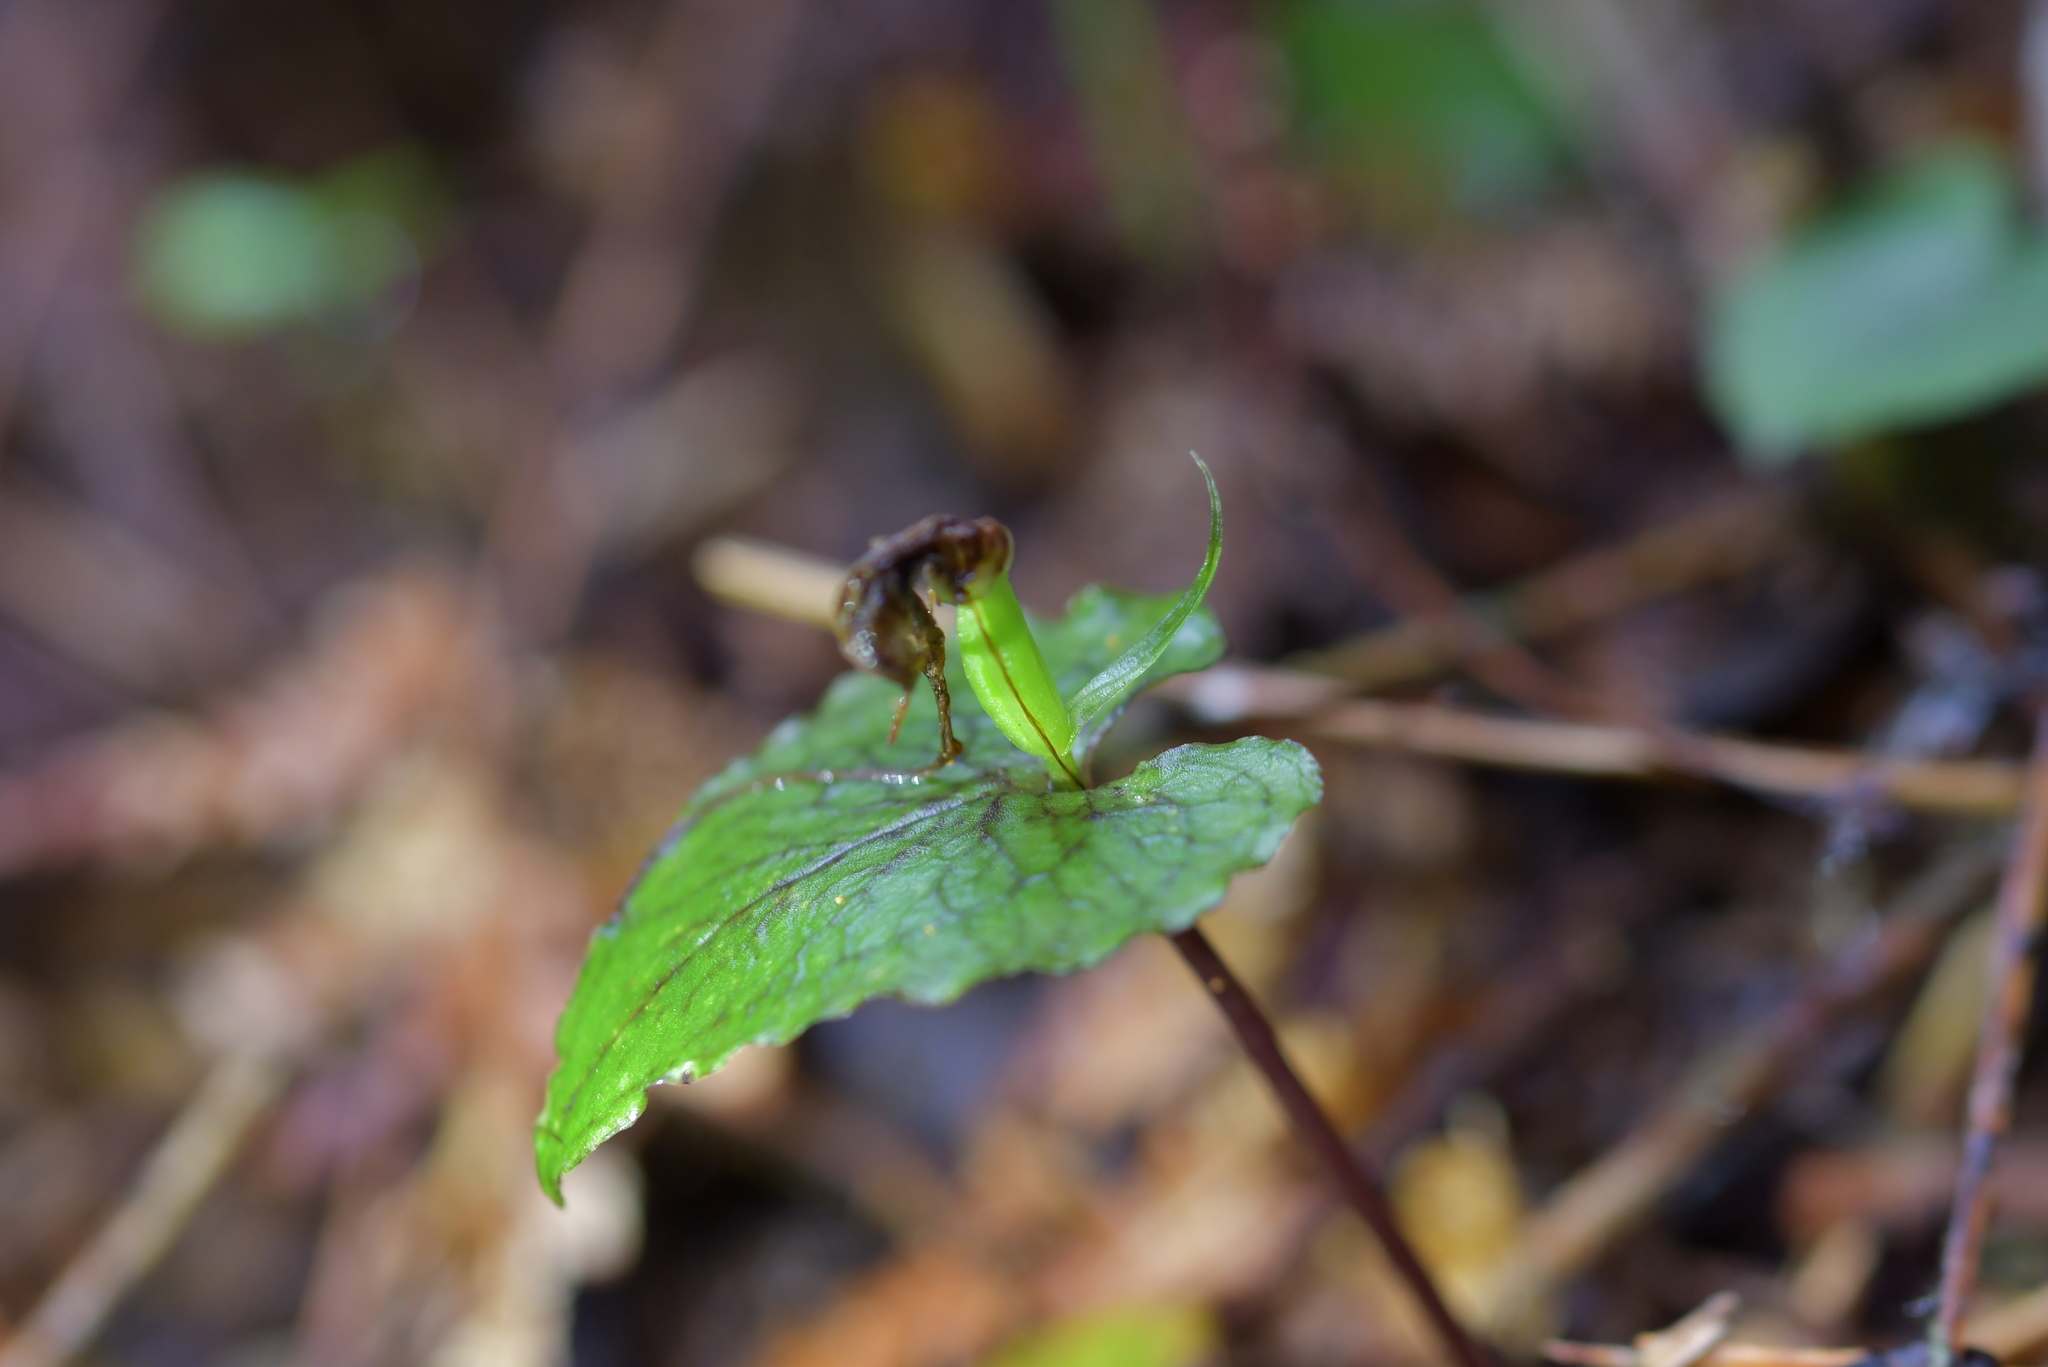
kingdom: Plantae
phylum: Tracheophyta
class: Liliopsida
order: Asparagales
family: Orchidaceae
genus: Corybas
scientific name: Corybas acuminatus
